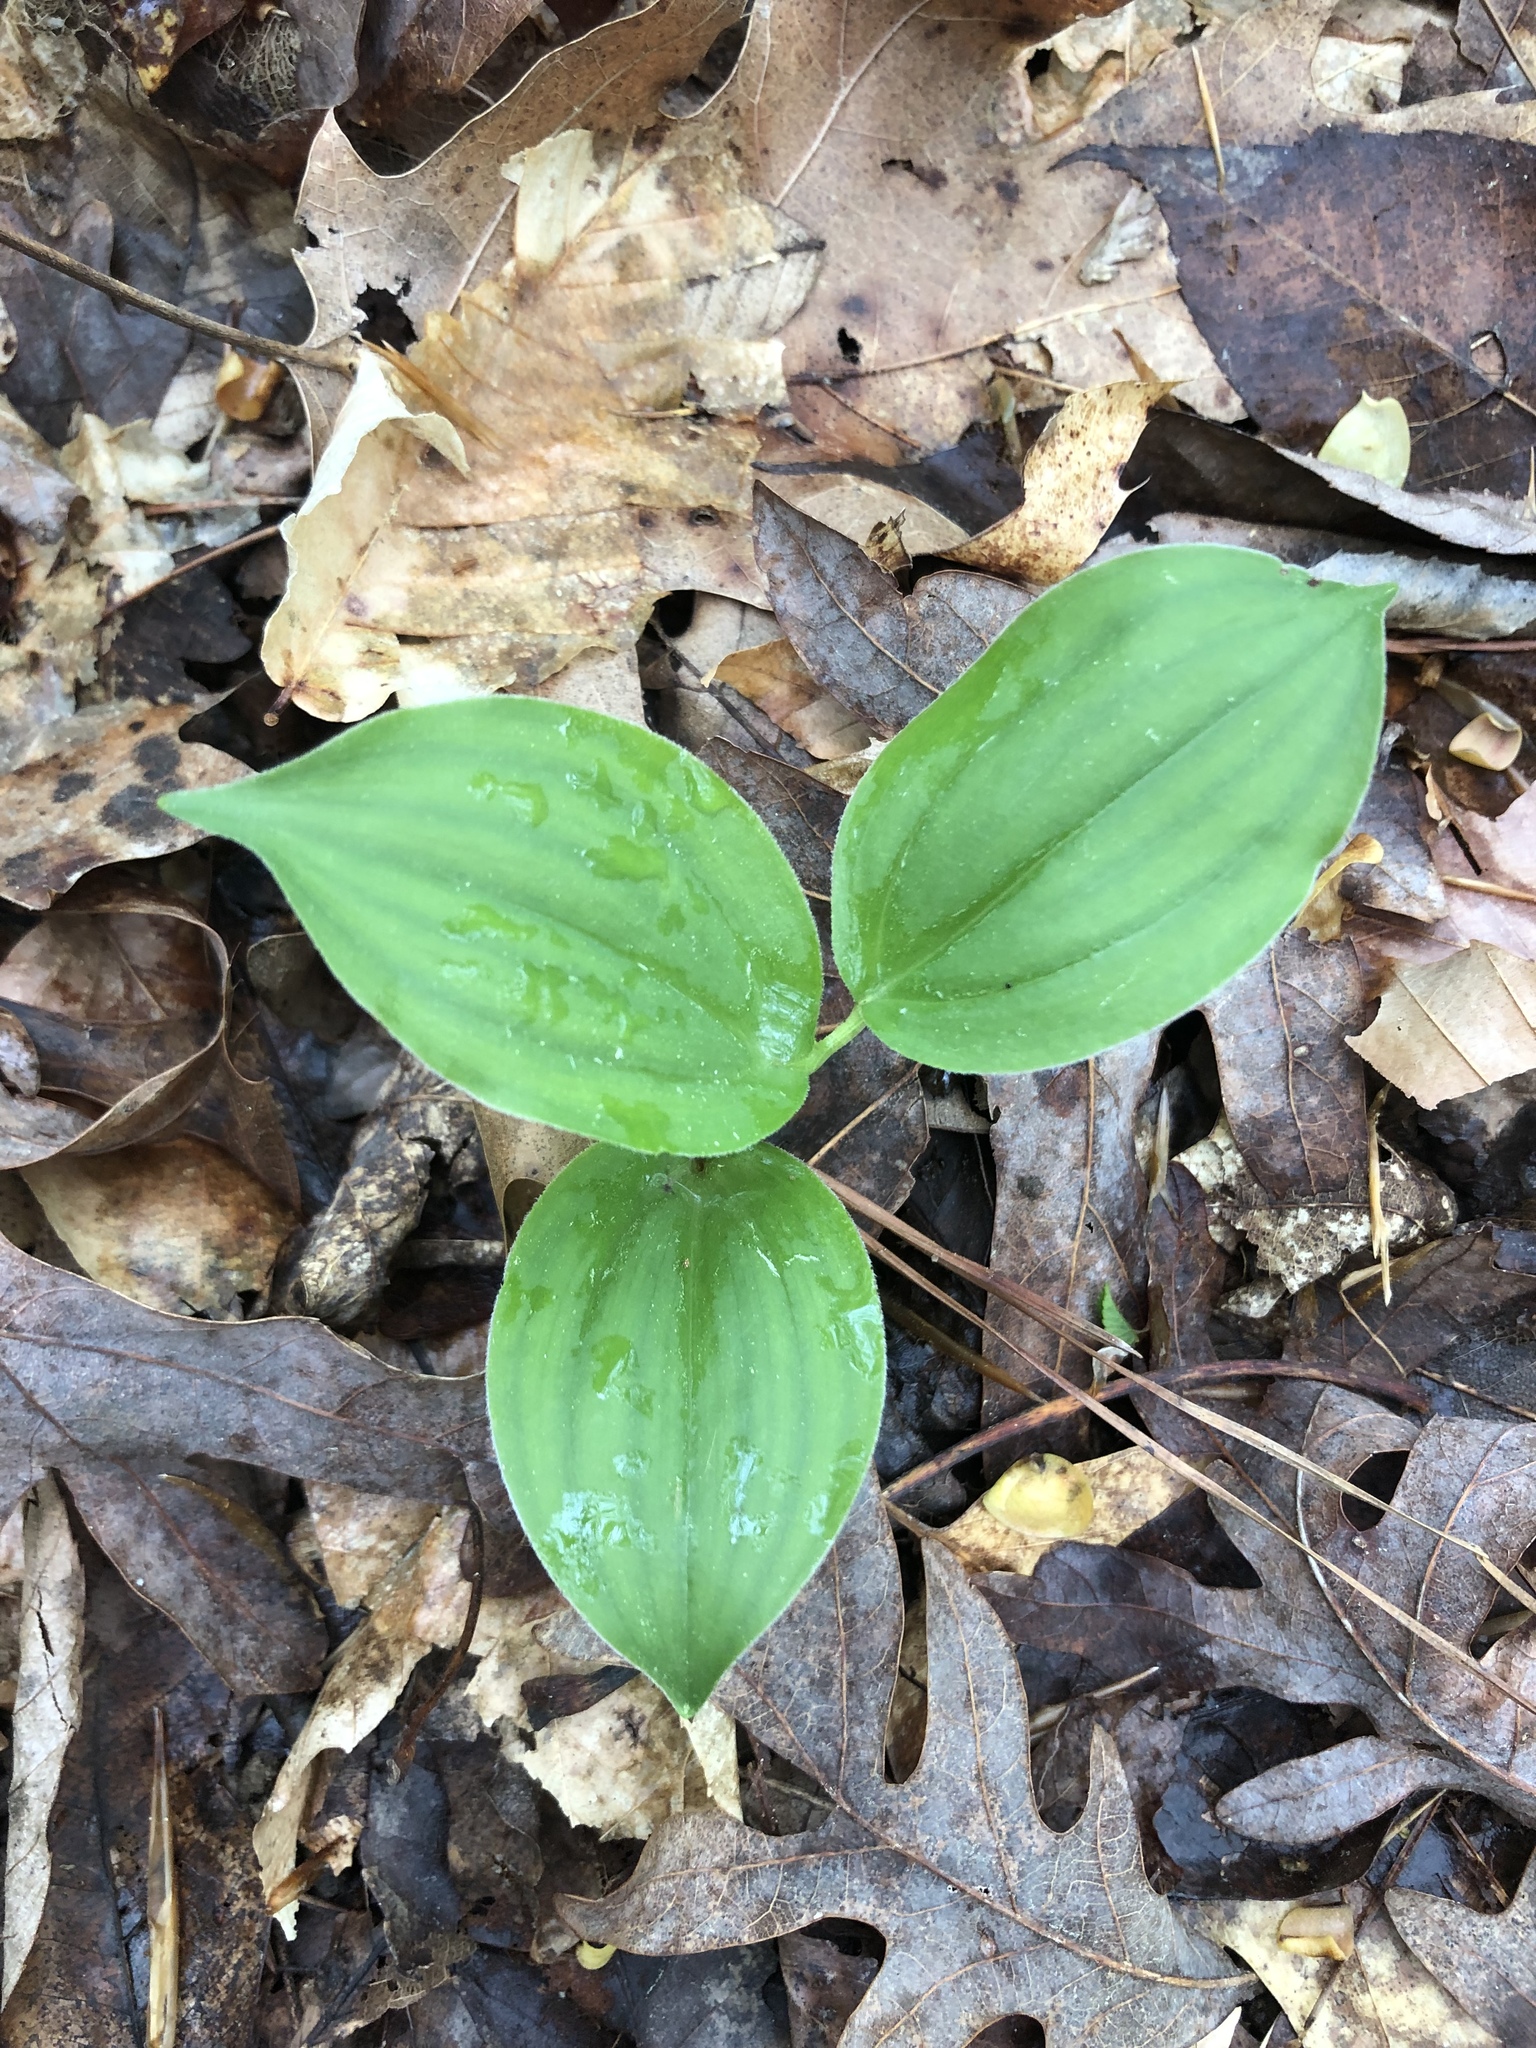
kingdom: Plantae
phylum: Tracheophyta
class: Liliopsida
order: Asparagales
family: Asparagaceae
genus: Maianthemum
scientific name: Maianthemum racemosum
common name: False spikenard
